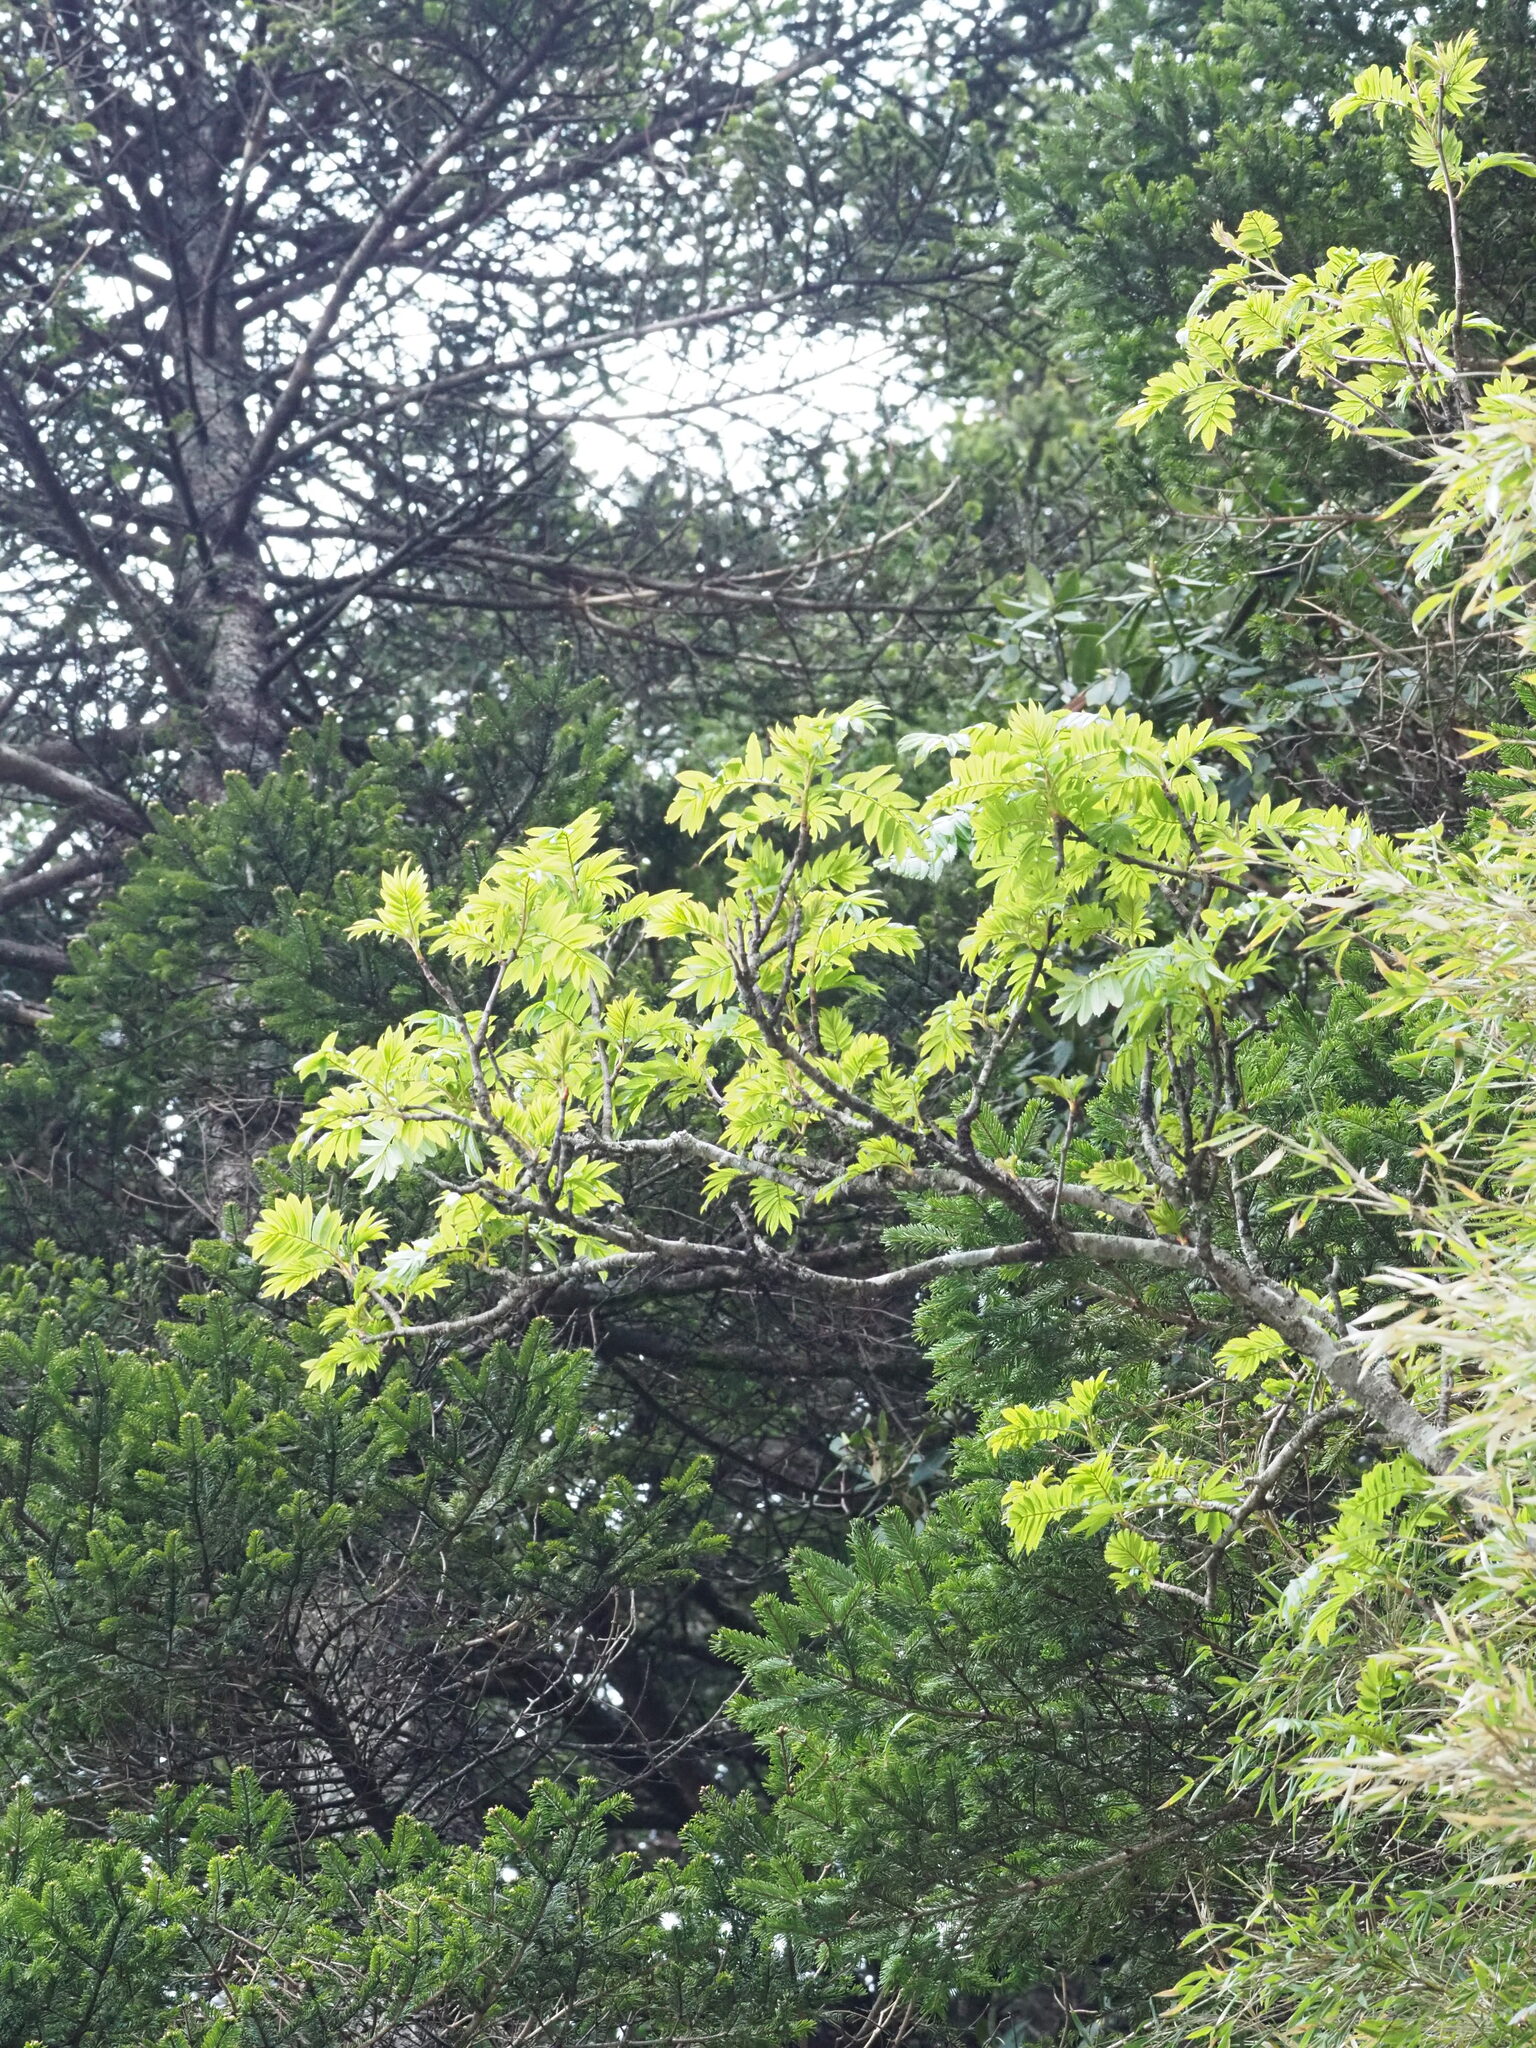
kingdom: Plantae
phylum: Tracheophyta
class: Magnoliopsida
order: Rosales
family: Rosaceae
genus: Sorbus
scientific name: Sorbus randaiensis
